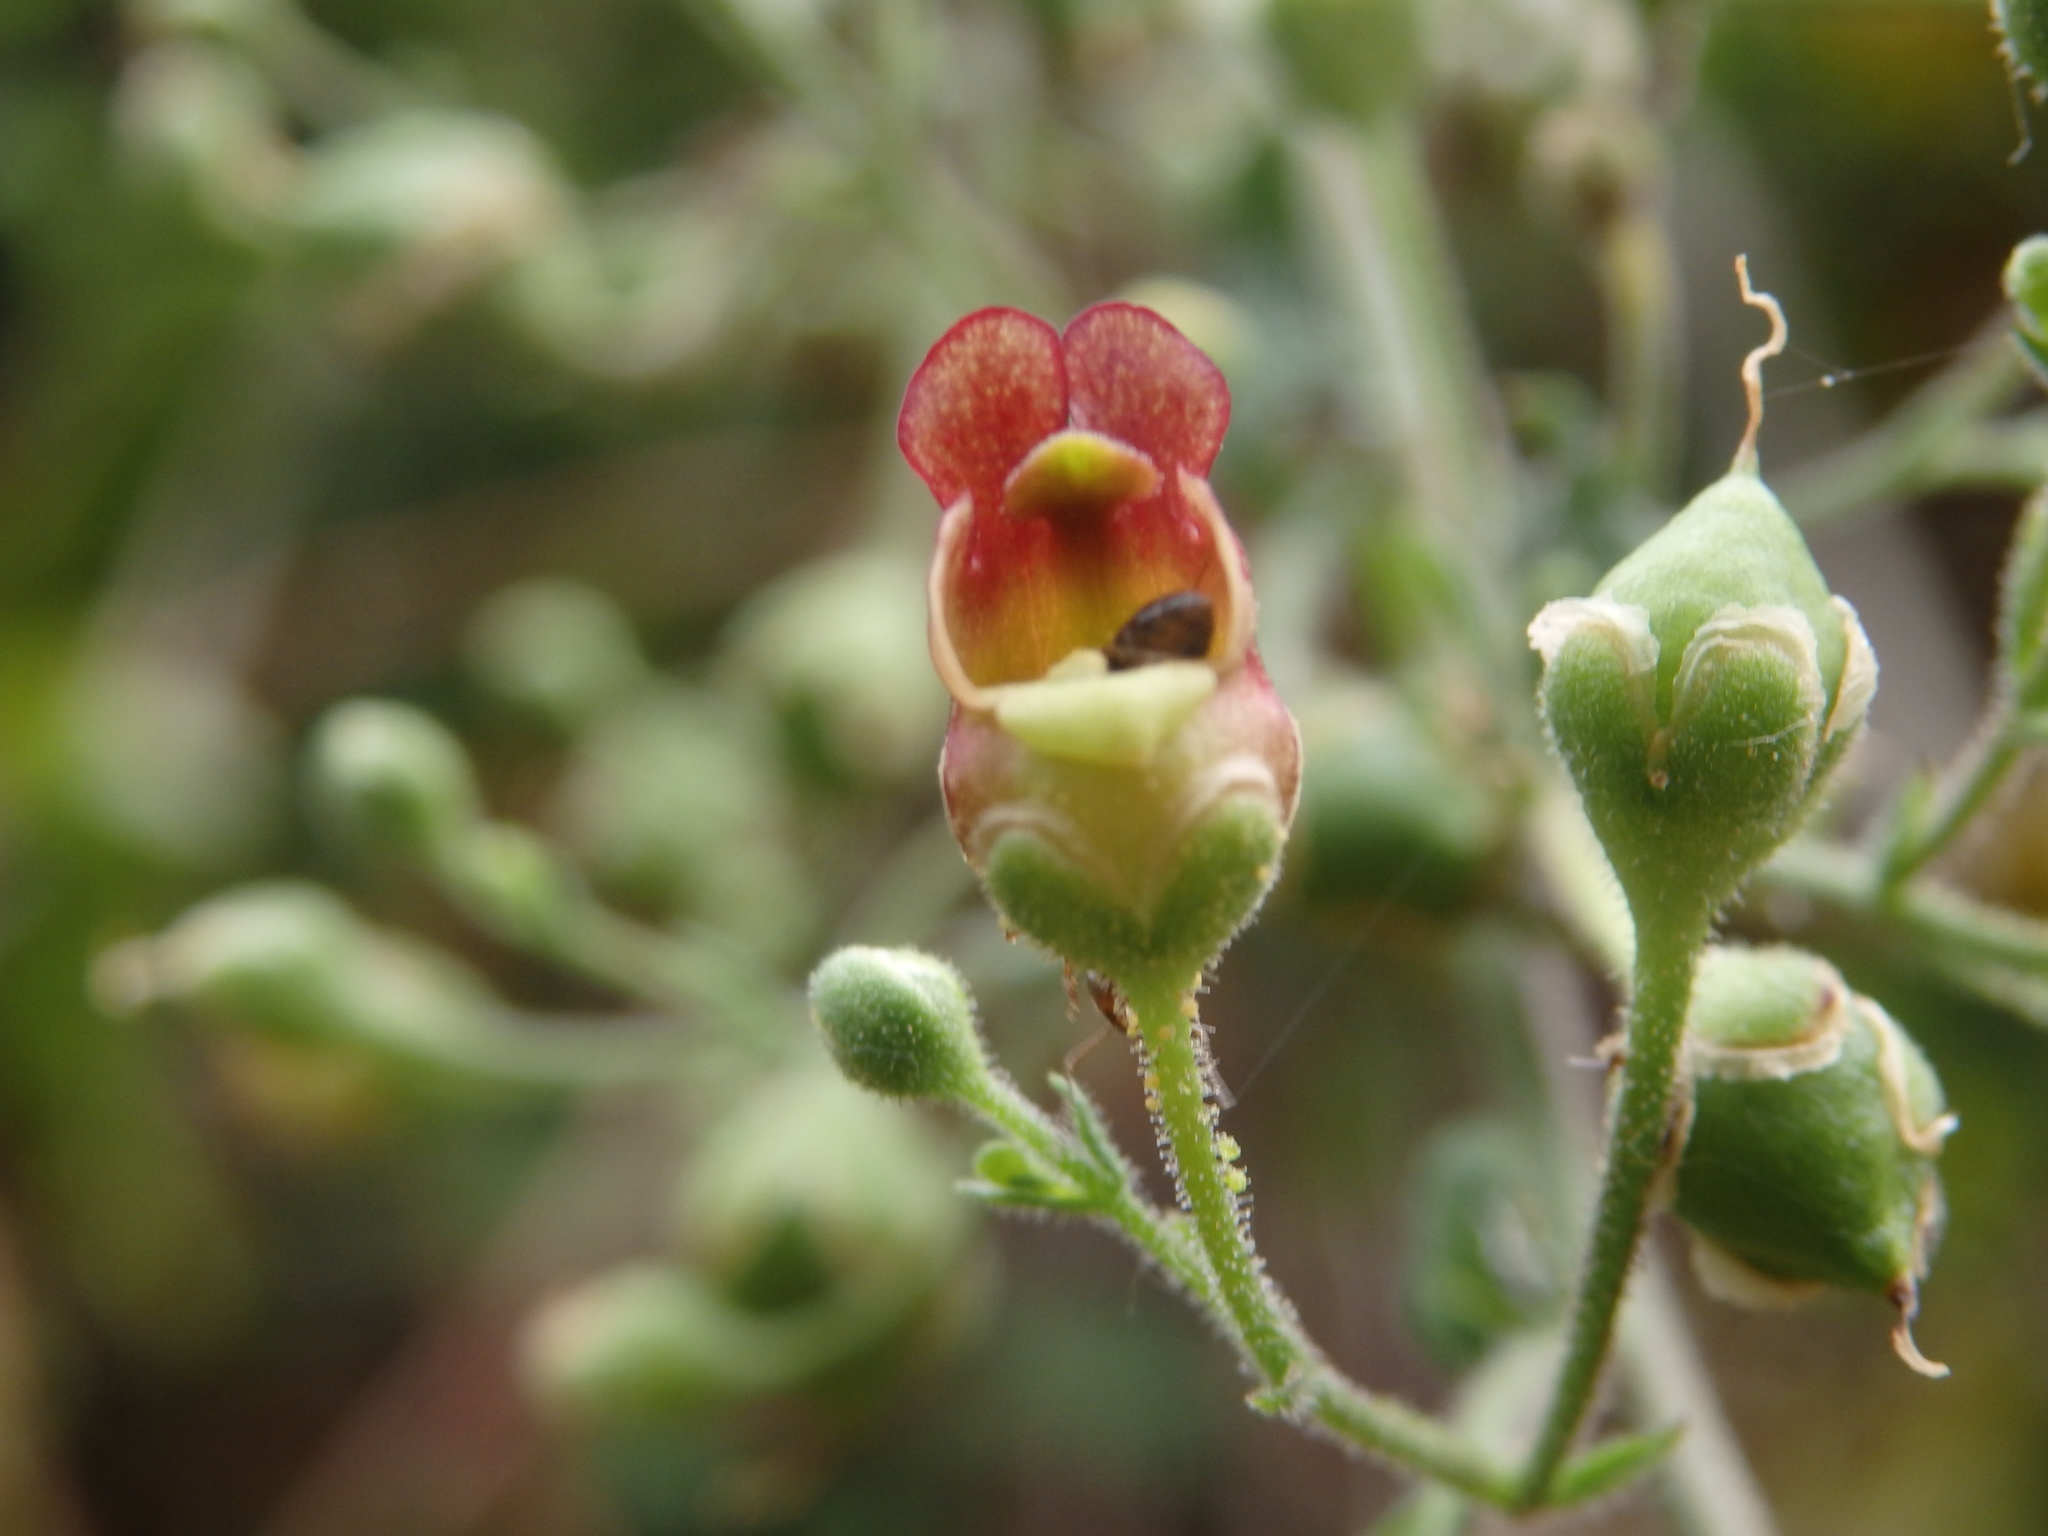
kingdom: Plantae
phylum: Tracheophyta
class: Magnoliopsida
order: Lamiales
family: Scrophulariaceae
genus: Scrophularia
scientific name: Scrophularia scorodonia
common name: Balm-leaved figwort
